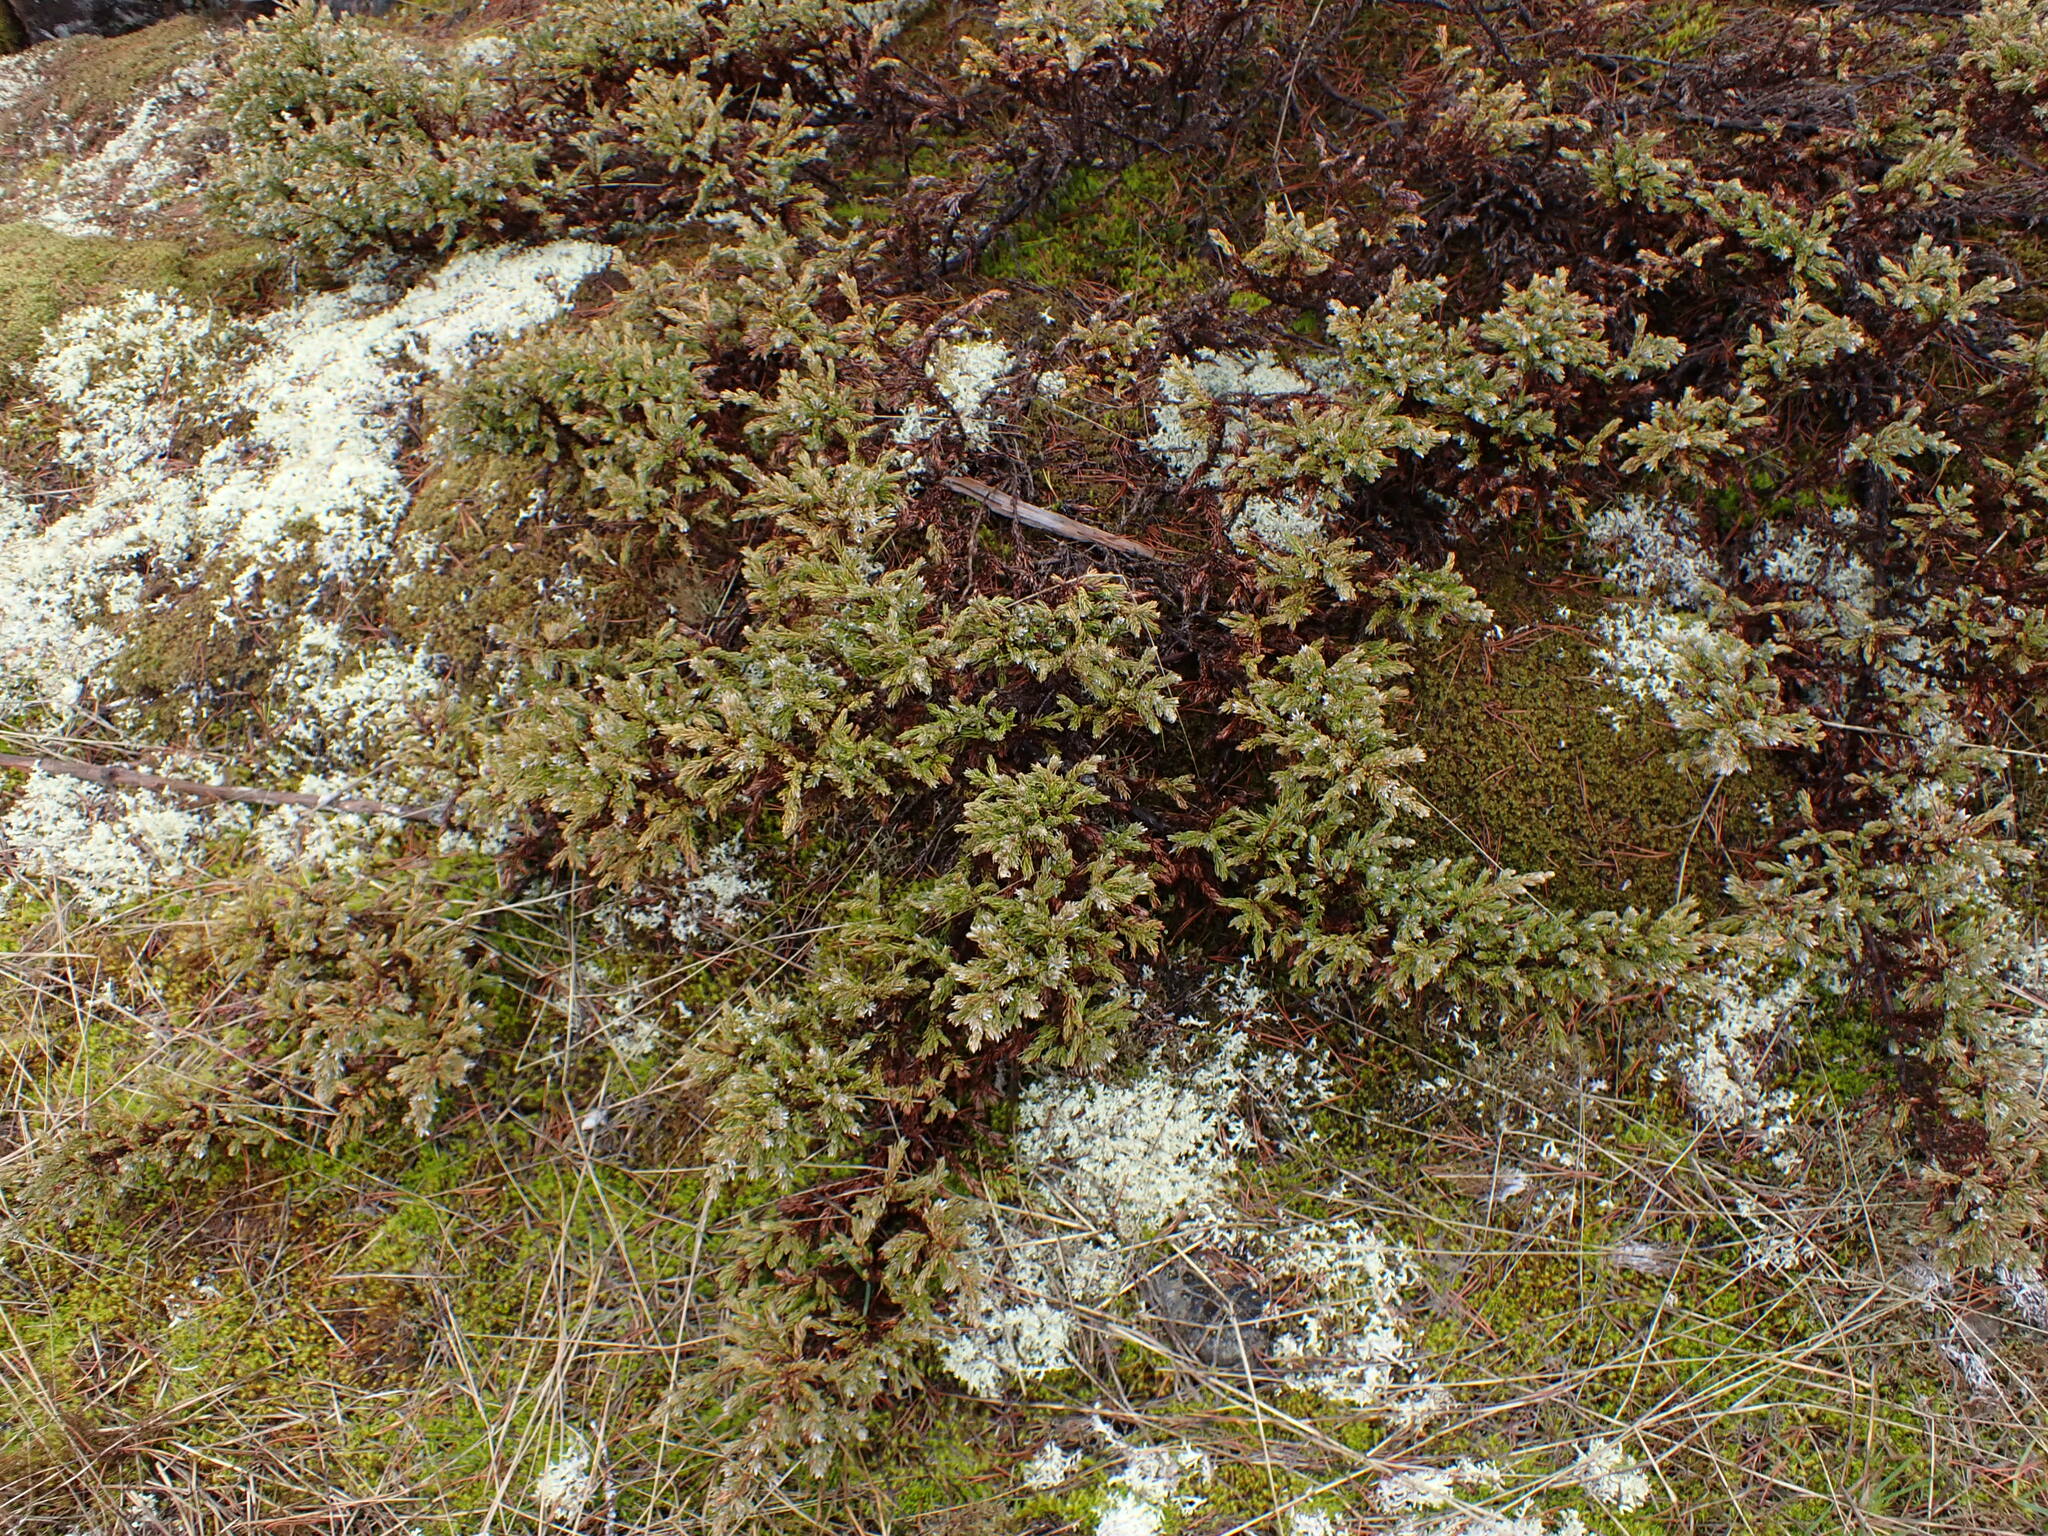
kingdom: Plantae
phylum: Tracheophyta
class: Pinopsida
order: Pinales
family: Cupressaceae
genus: Juniperus
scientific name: Juniperus communis
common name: Common juniper
